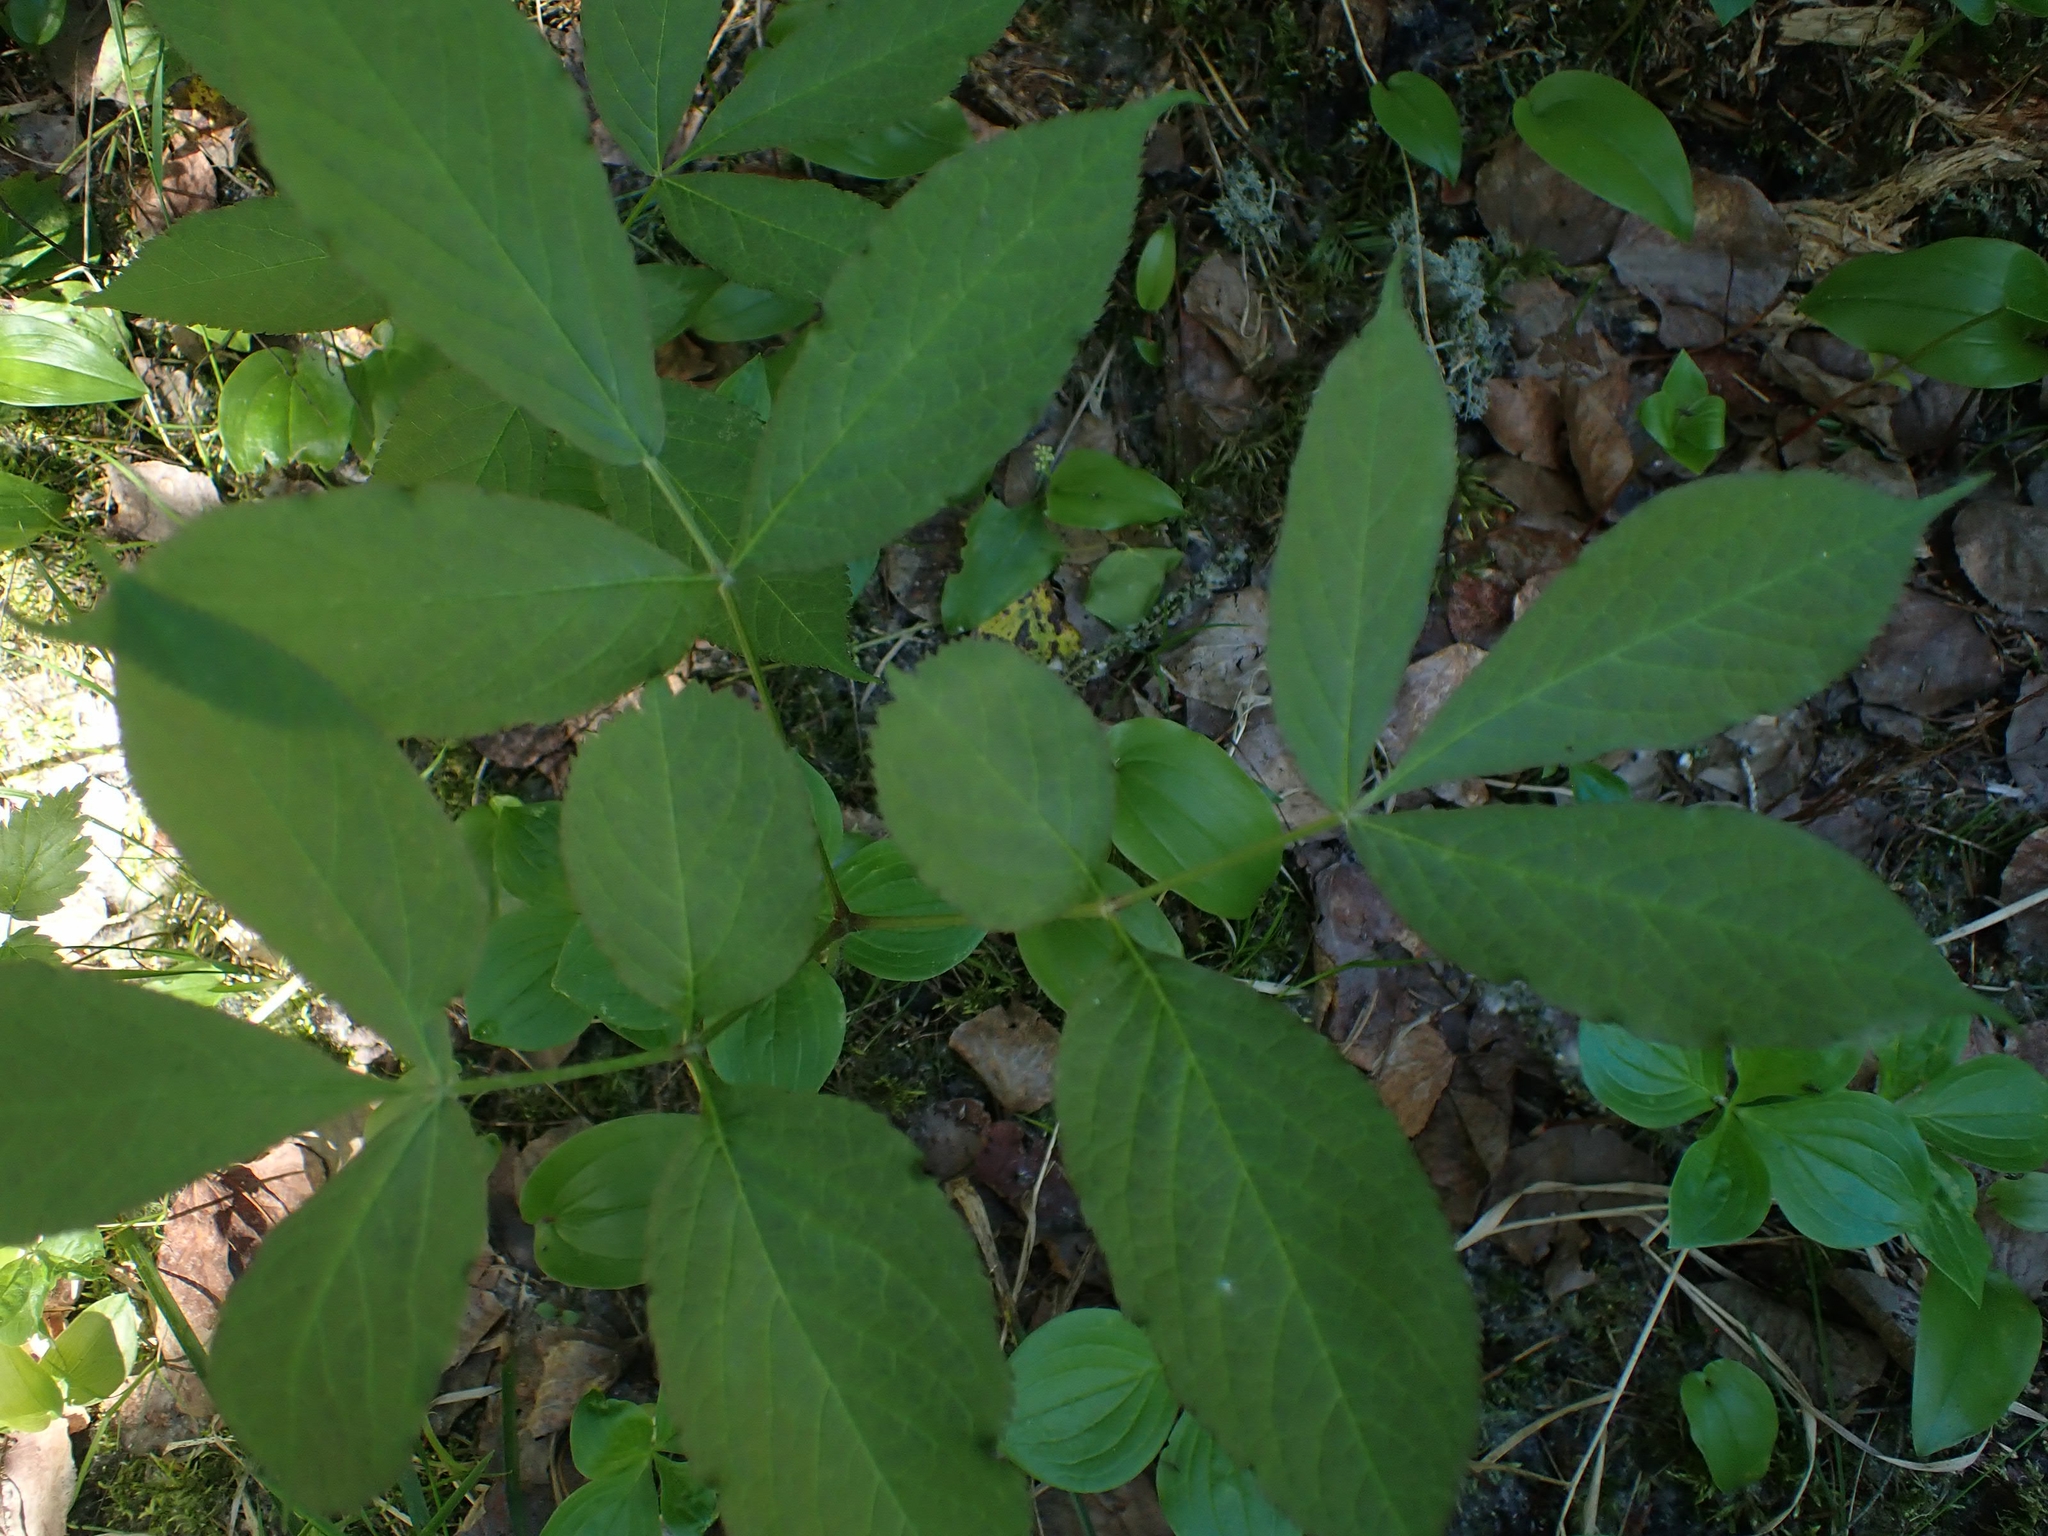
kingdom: Plantae
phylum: Tracheophyta
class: Magnoliopsida
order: Apiales
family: Araliaceae
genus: Aralia
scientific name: Aralia nudicaulis
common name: Wild sarsaparilla
